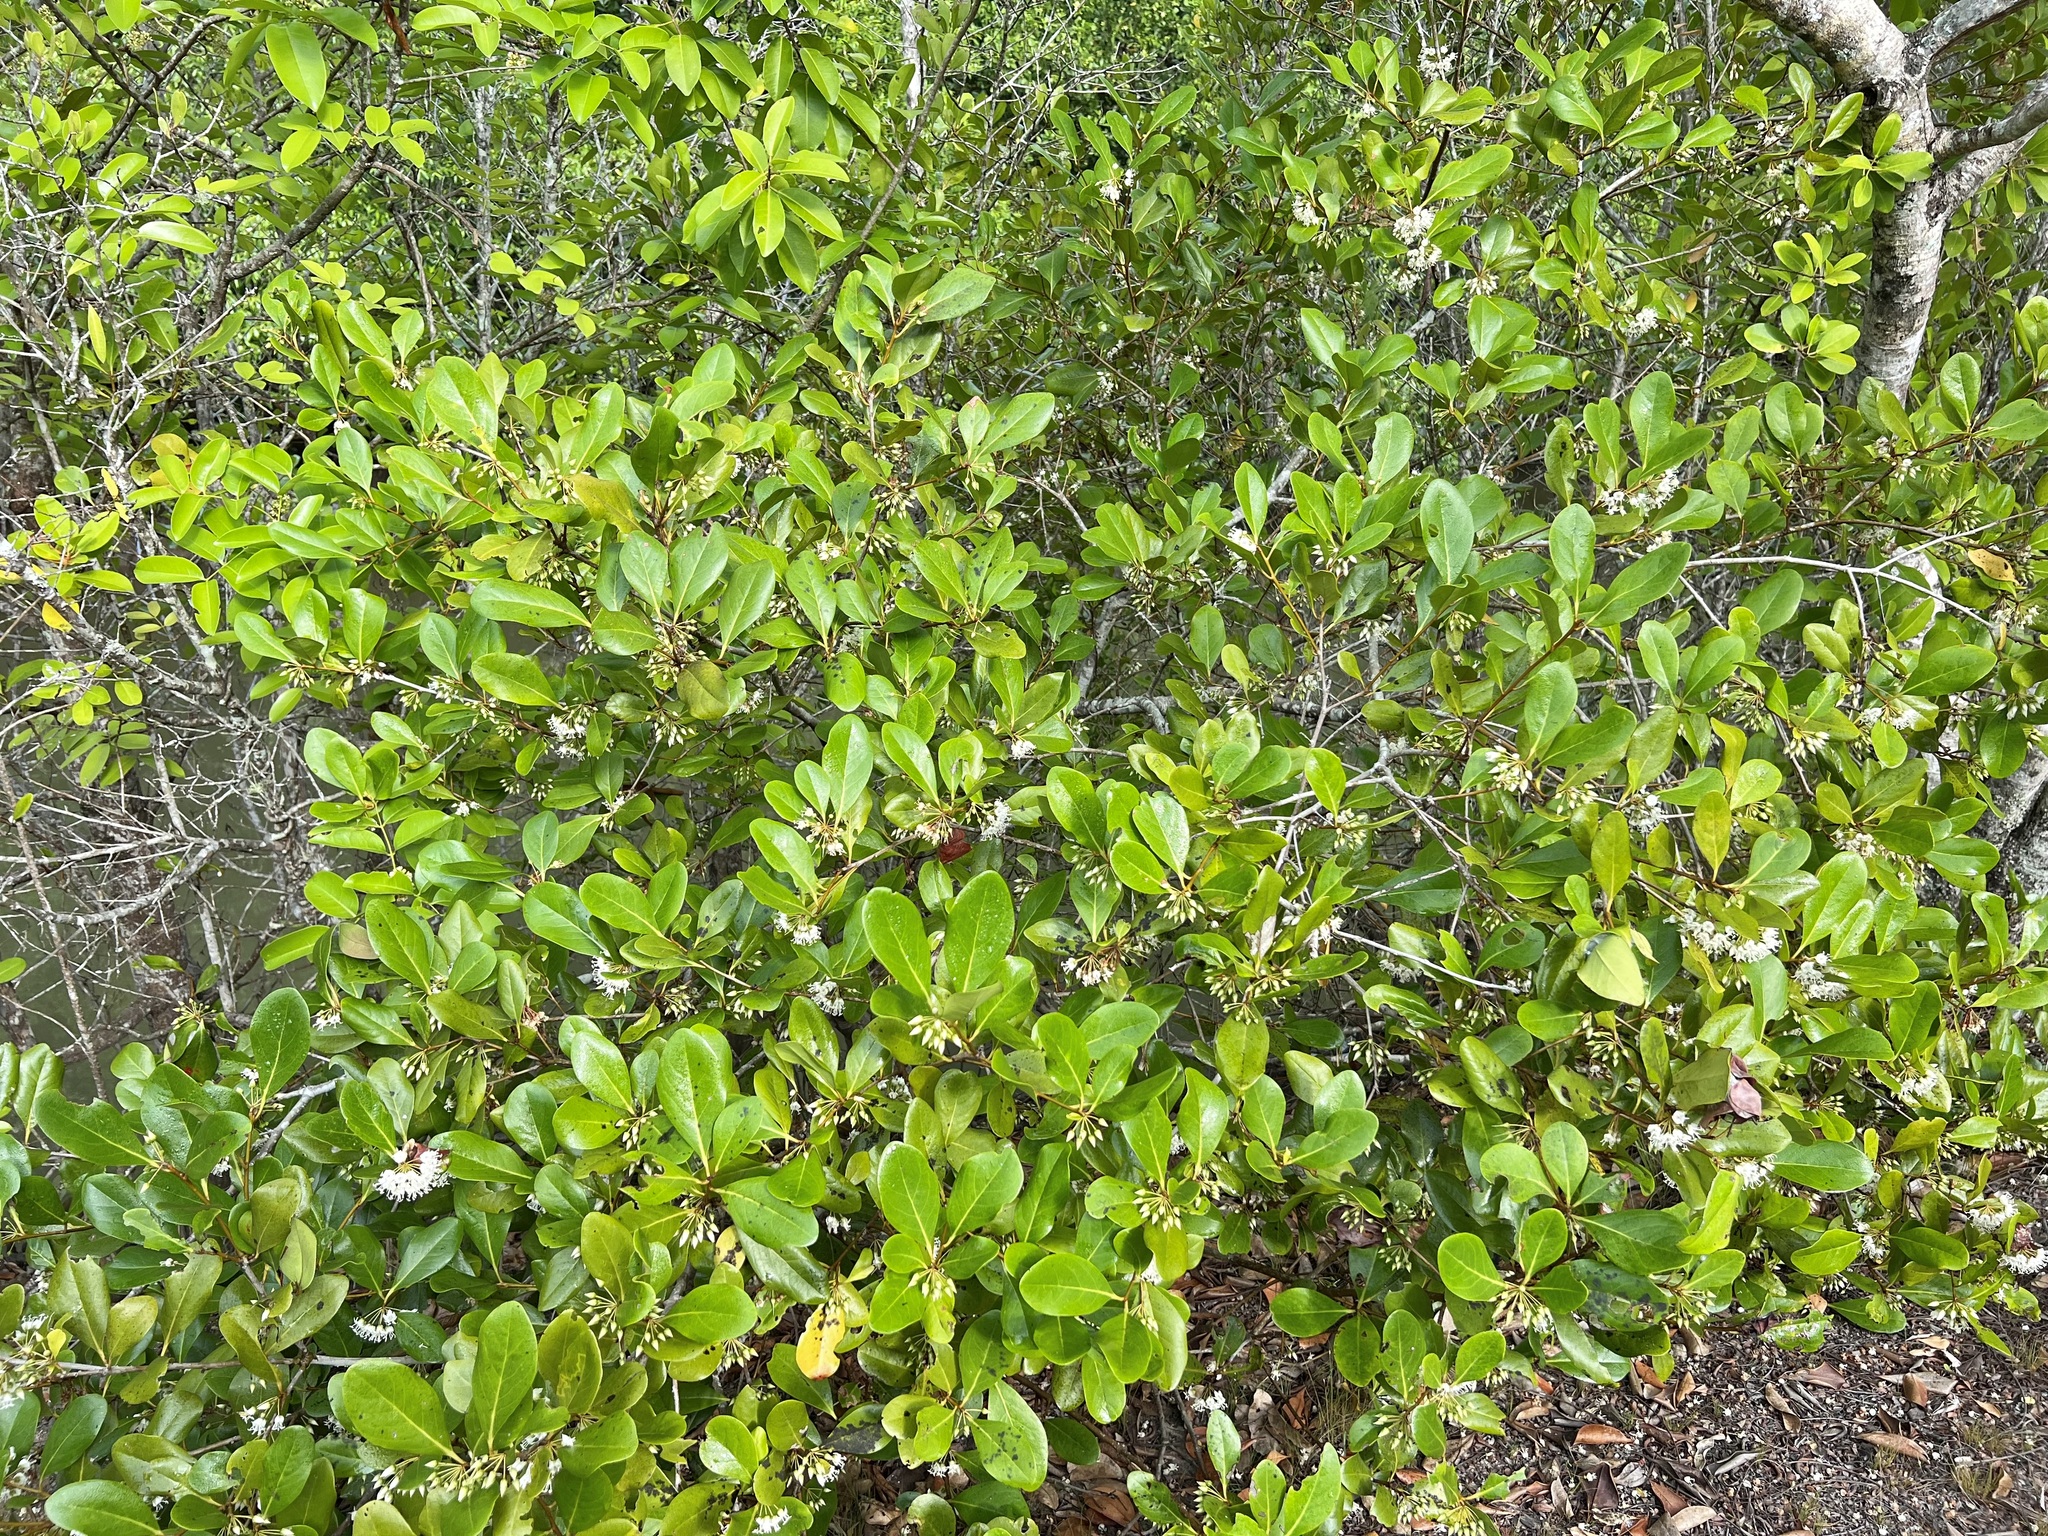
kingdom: Plantae
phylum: Tracheophyta
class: Magnoliopsida
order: Ericales
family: Primulaceae
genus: Aegiceras
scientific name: Aegiceras corniculatum
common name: River mangrove
